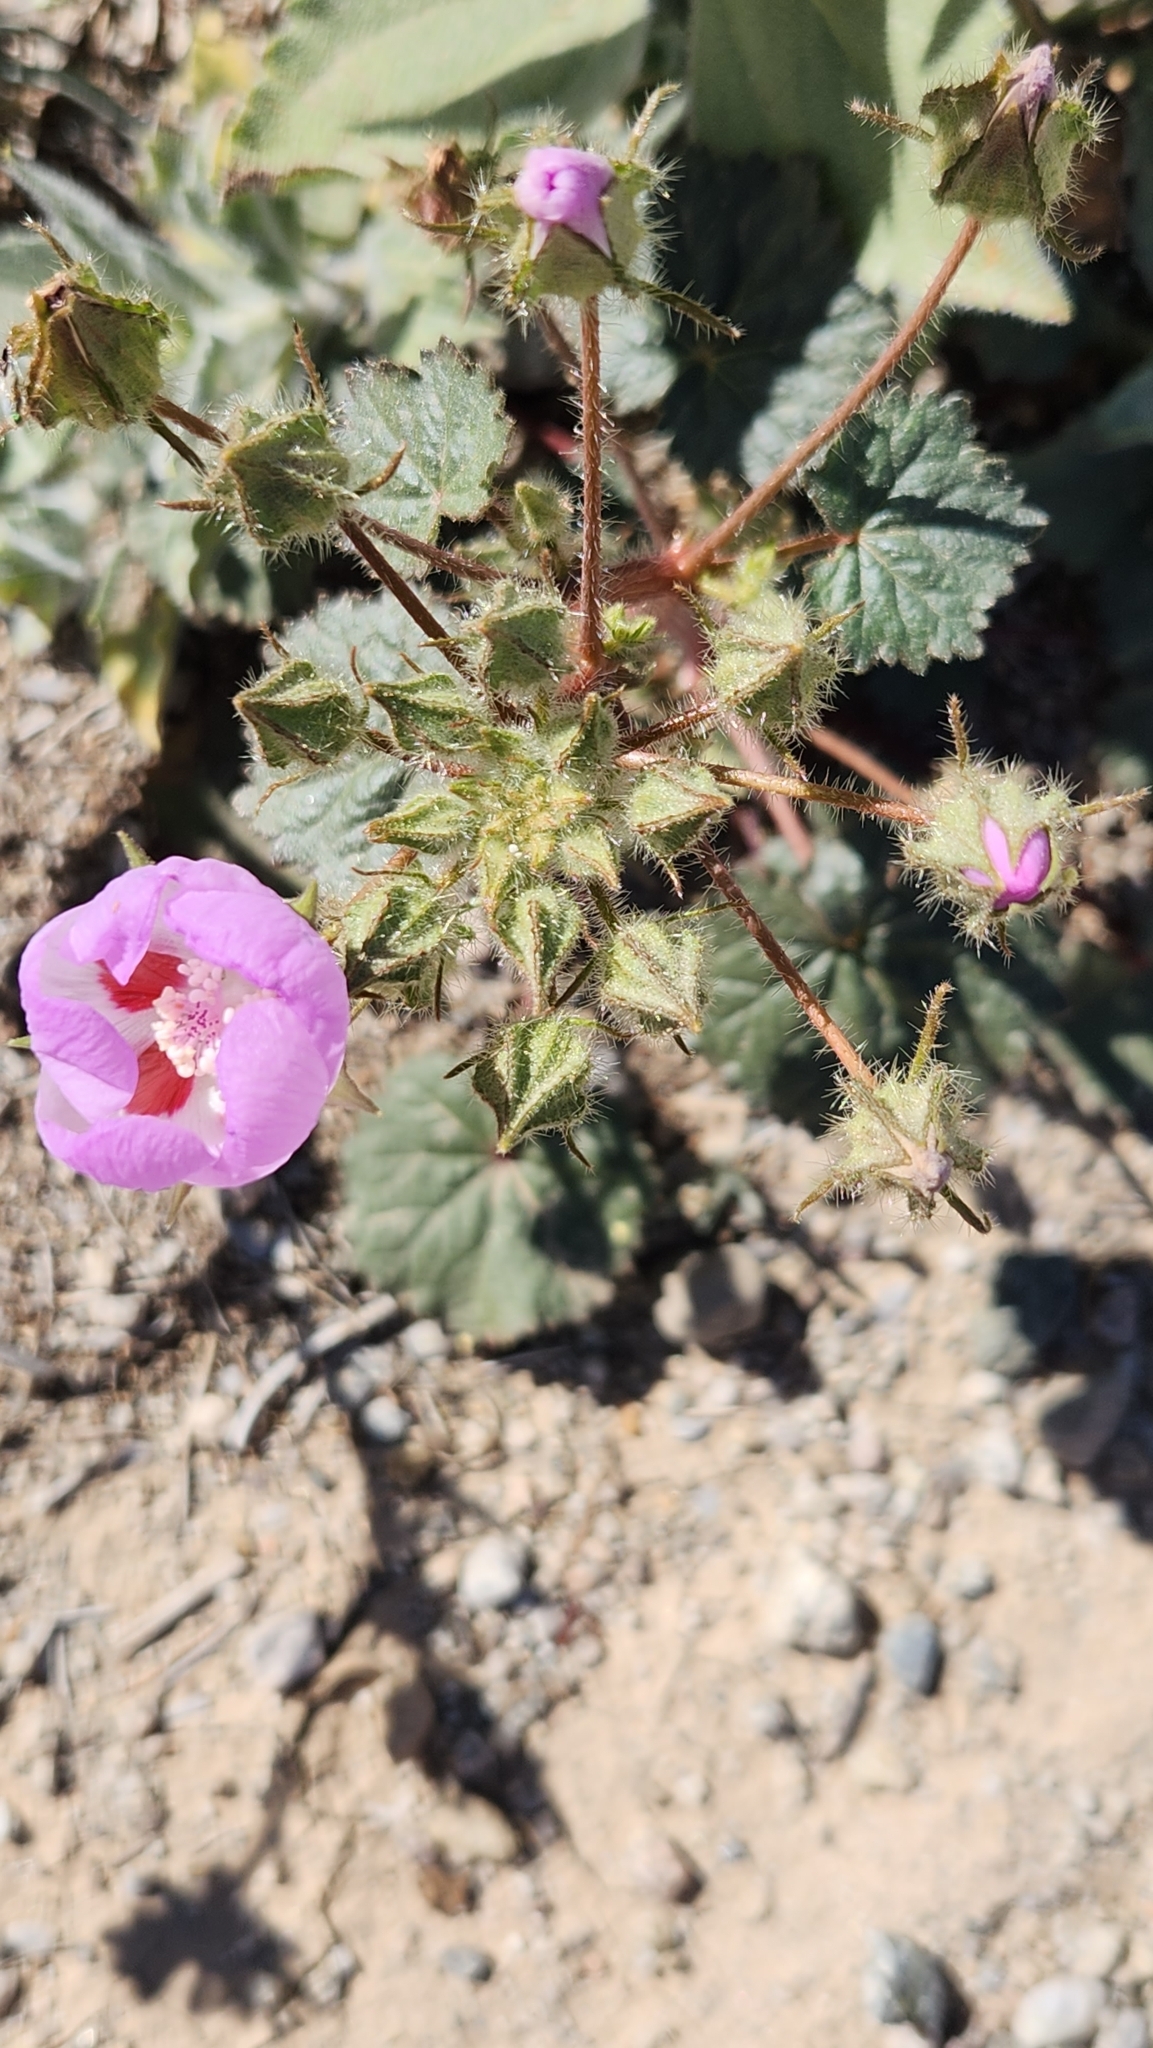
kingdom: Plantae
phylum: Tracheophyta
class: Magnoliopsida
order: Malvales
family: Malvaceae
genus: Eremalche
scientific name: Eremalche rotundifolia
